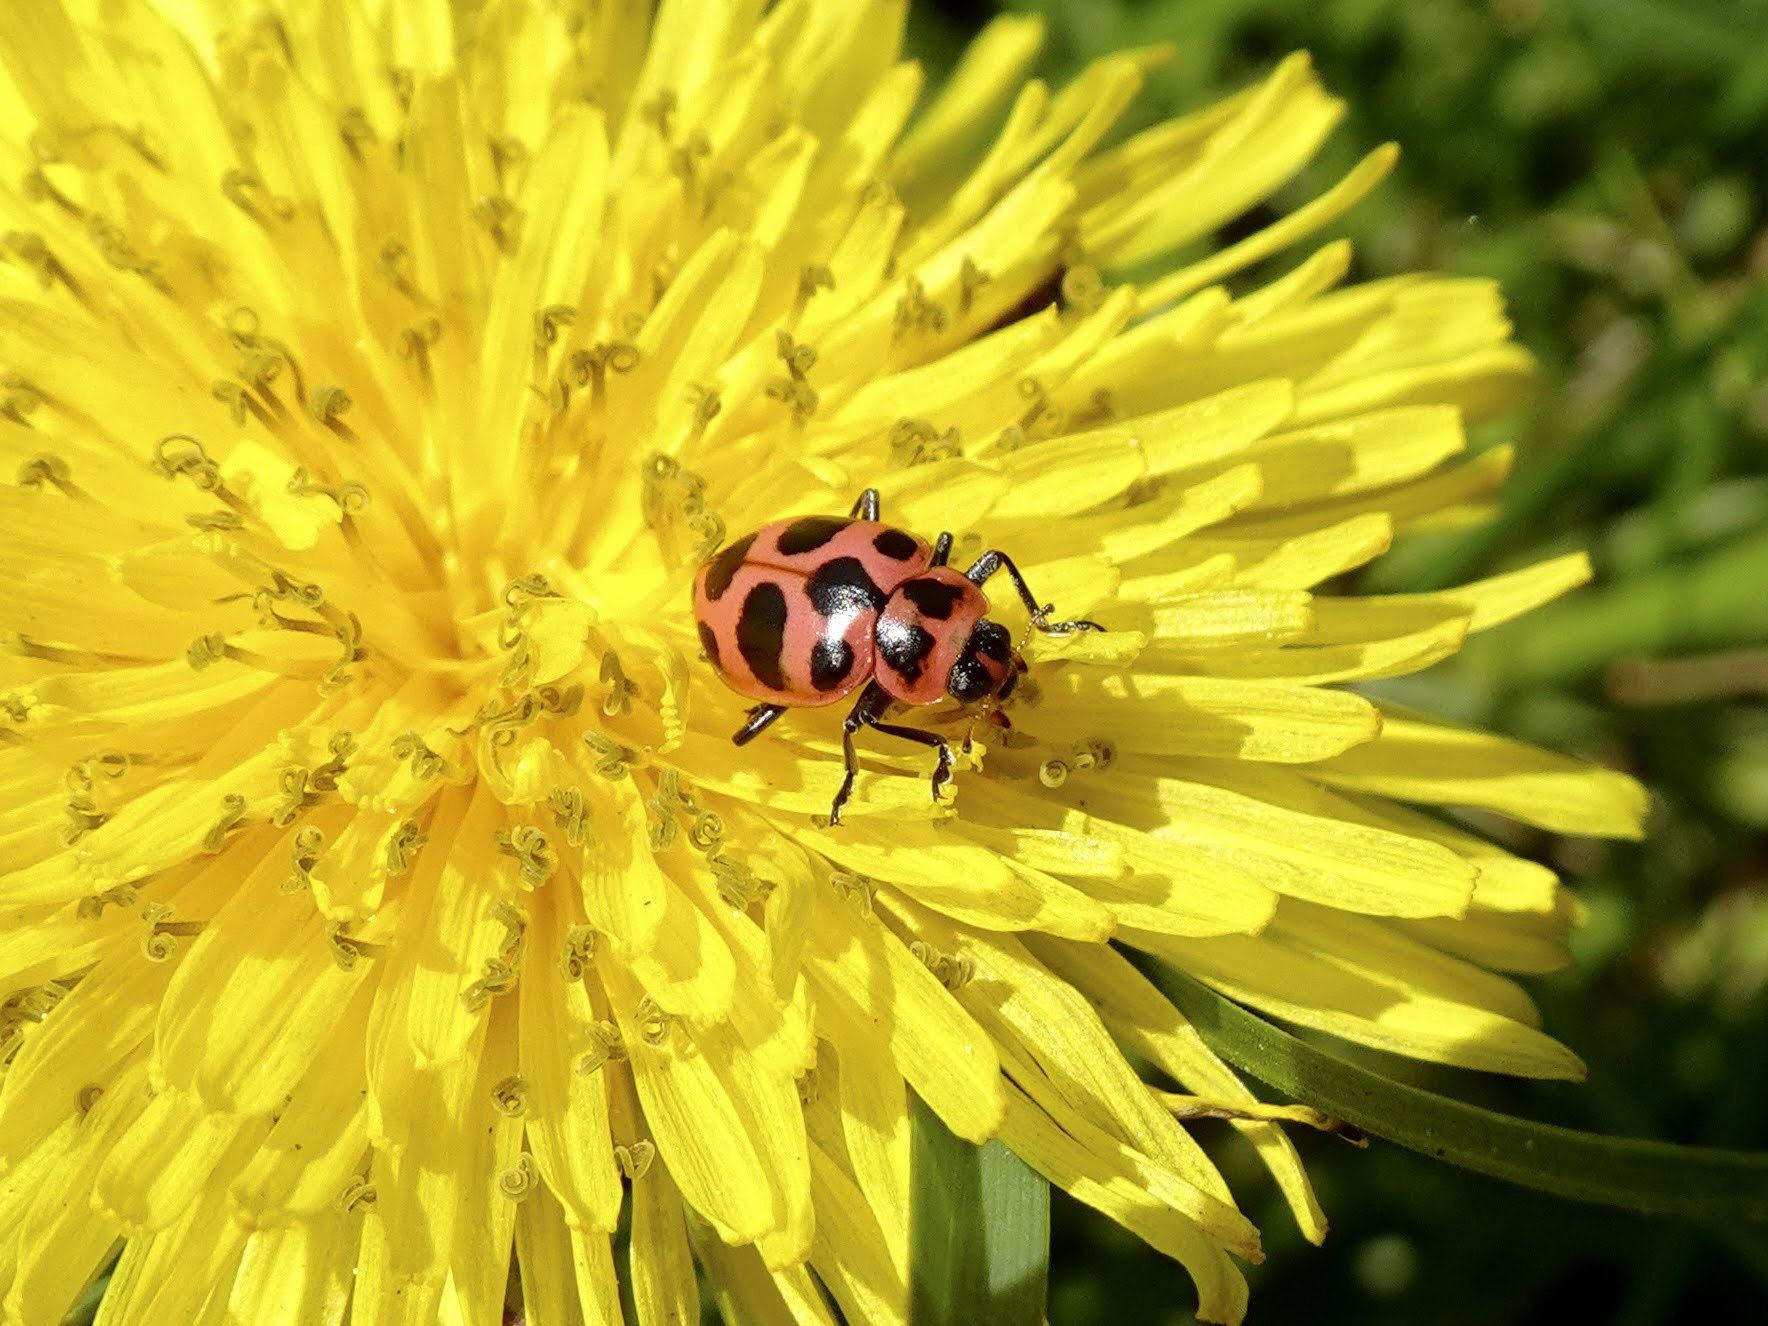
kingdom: Animalia
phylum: Arthropoda
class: Insecta
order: Coleoptera
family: Coccinellidae
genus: Coleomegilla
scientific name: Coleomegilla maculata
